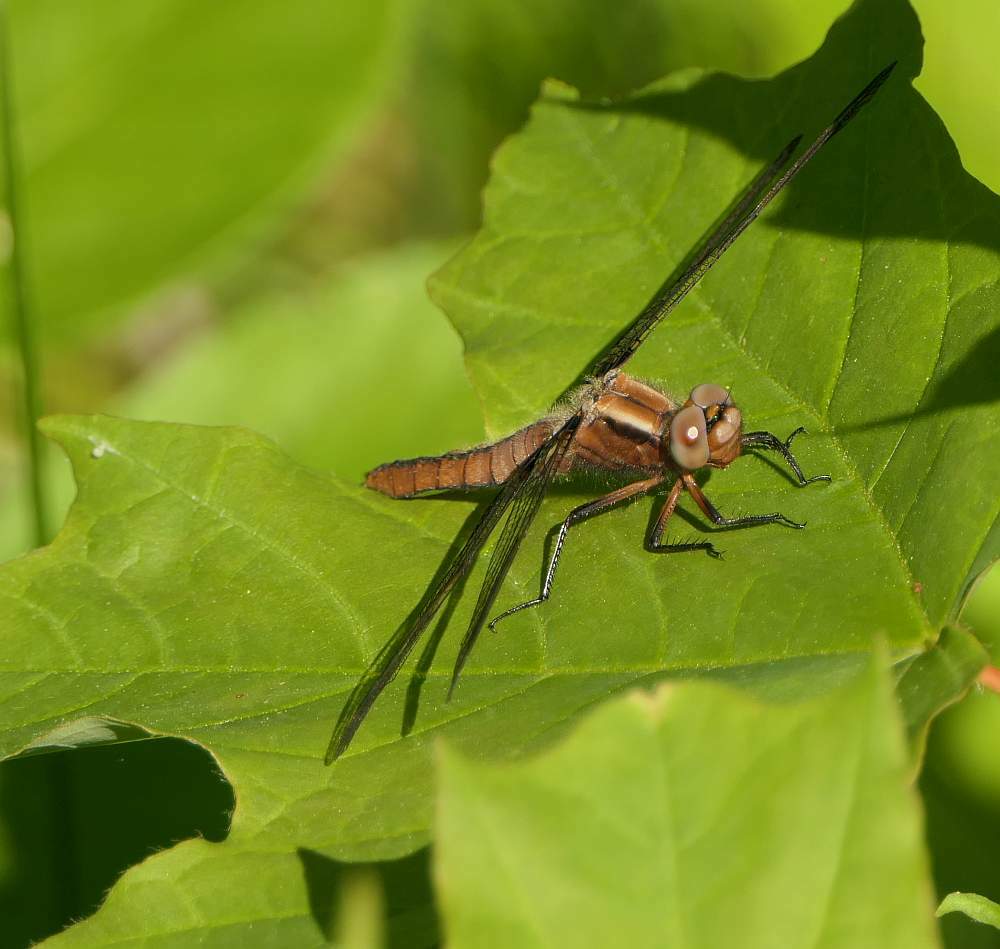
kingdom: Animalia
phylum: Arthropoda
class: Insecta
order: Odonata
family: Libellulidae
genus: Ladona
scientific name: Ladona julia
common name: Chalk-fronted corporal
